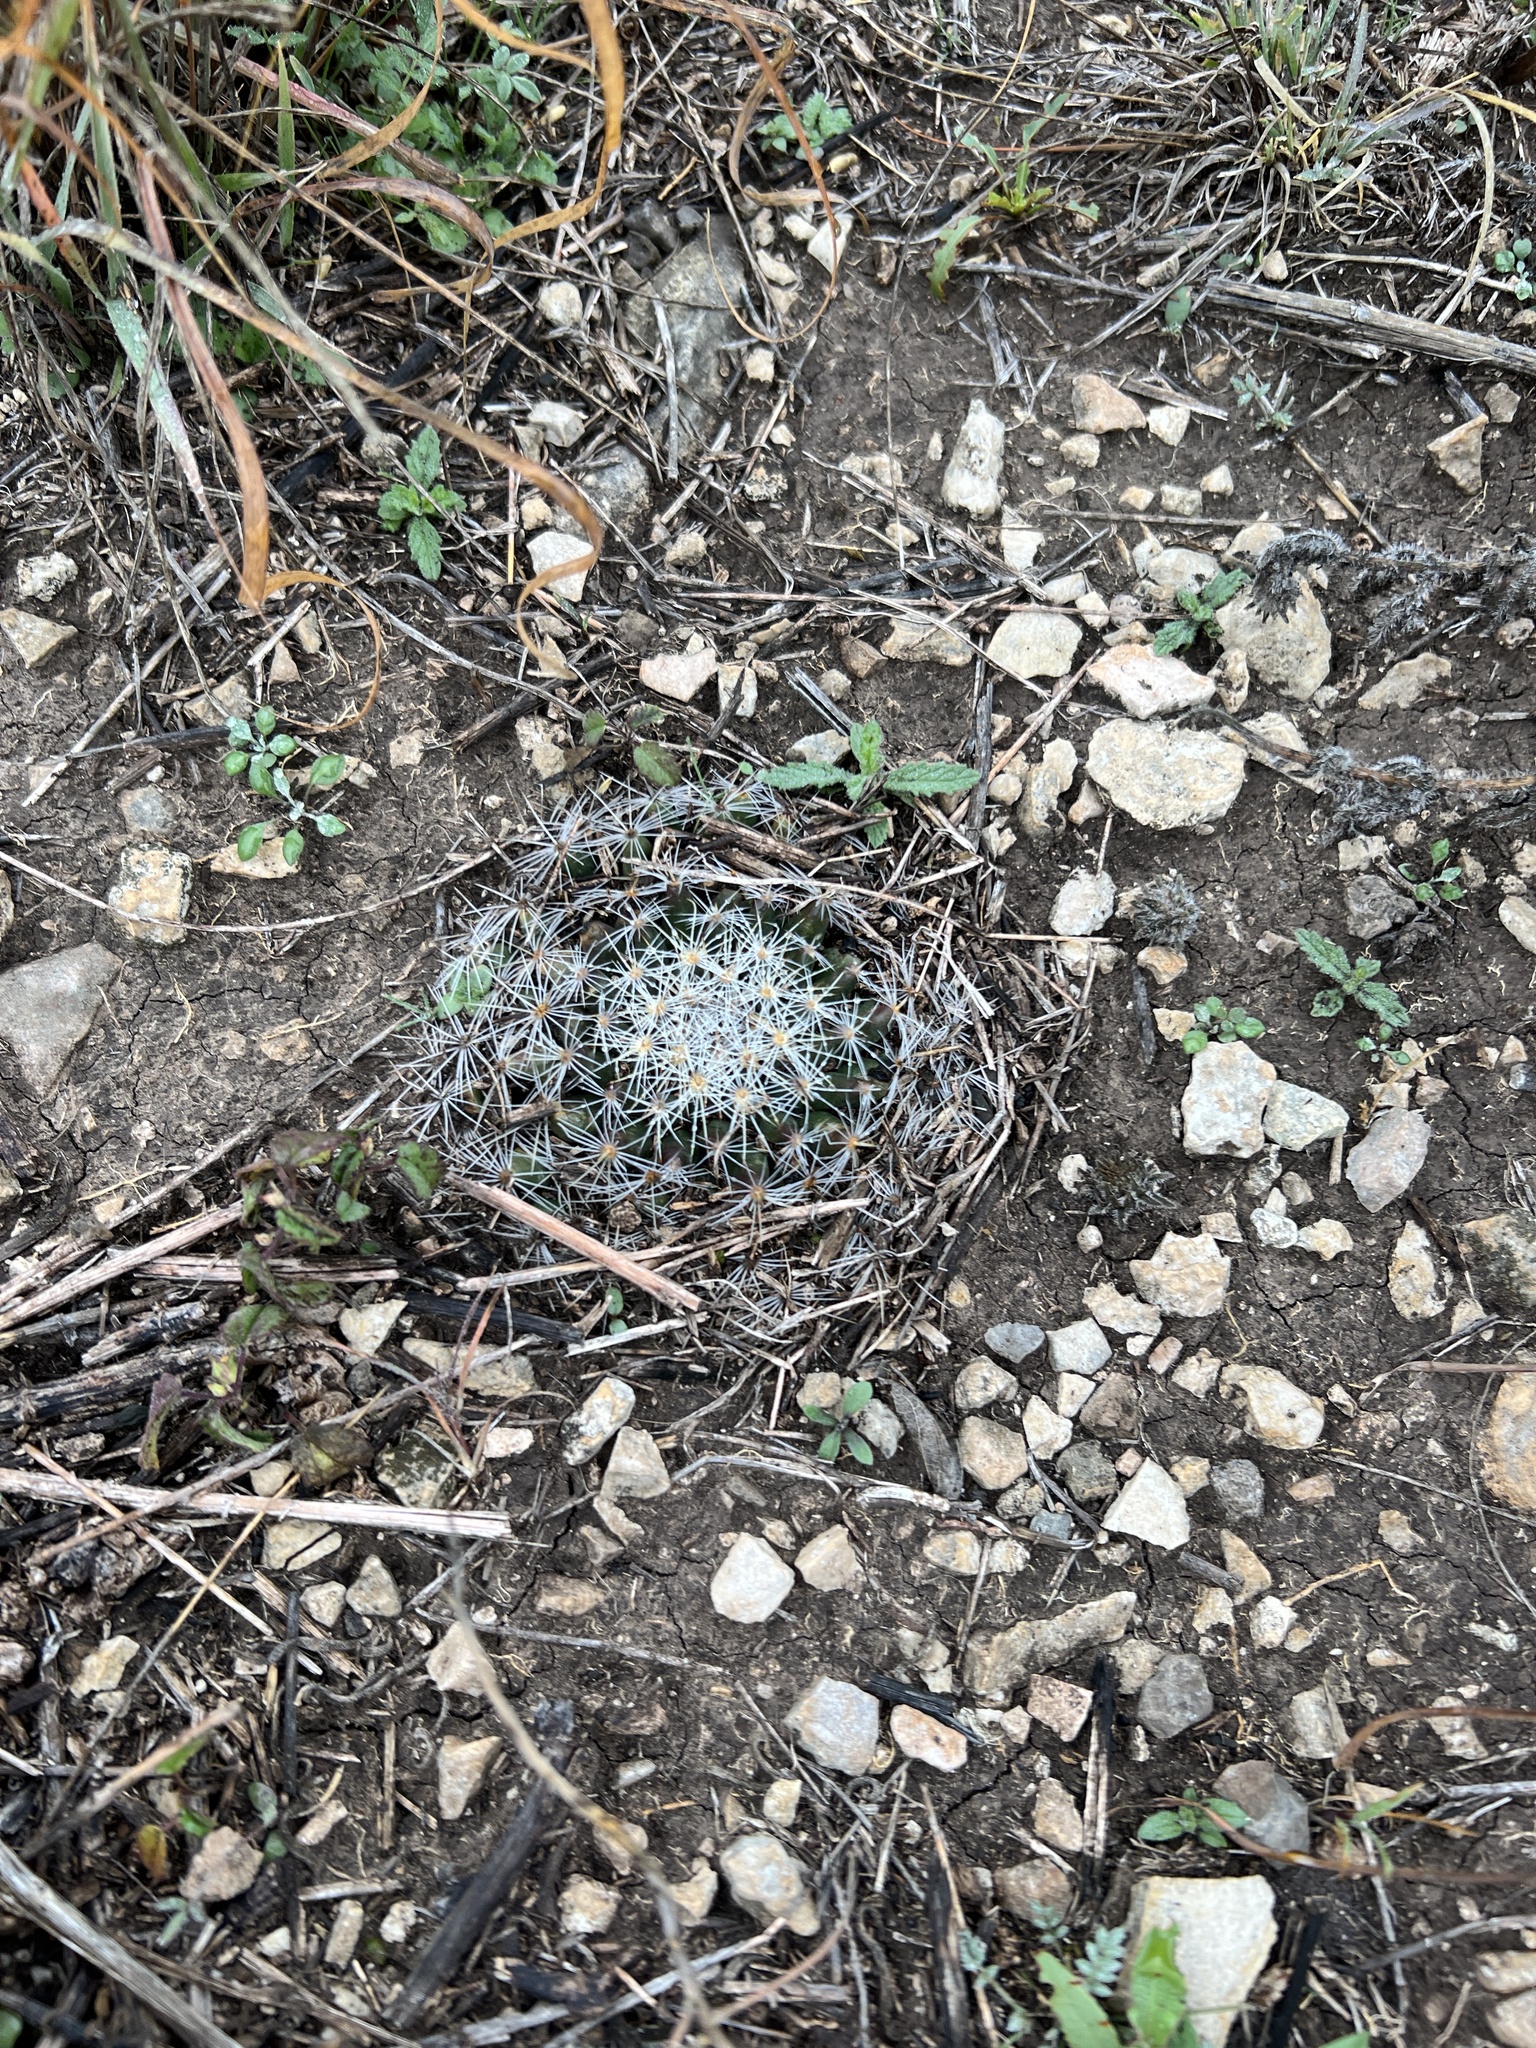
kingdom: Plantae
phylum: Tracheophyta
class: Magnoliopsida
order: Caryophyllales
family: Cactaceae
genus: Mammillaria
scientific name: Mammillaria heyderi
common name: Little nipple cactus
